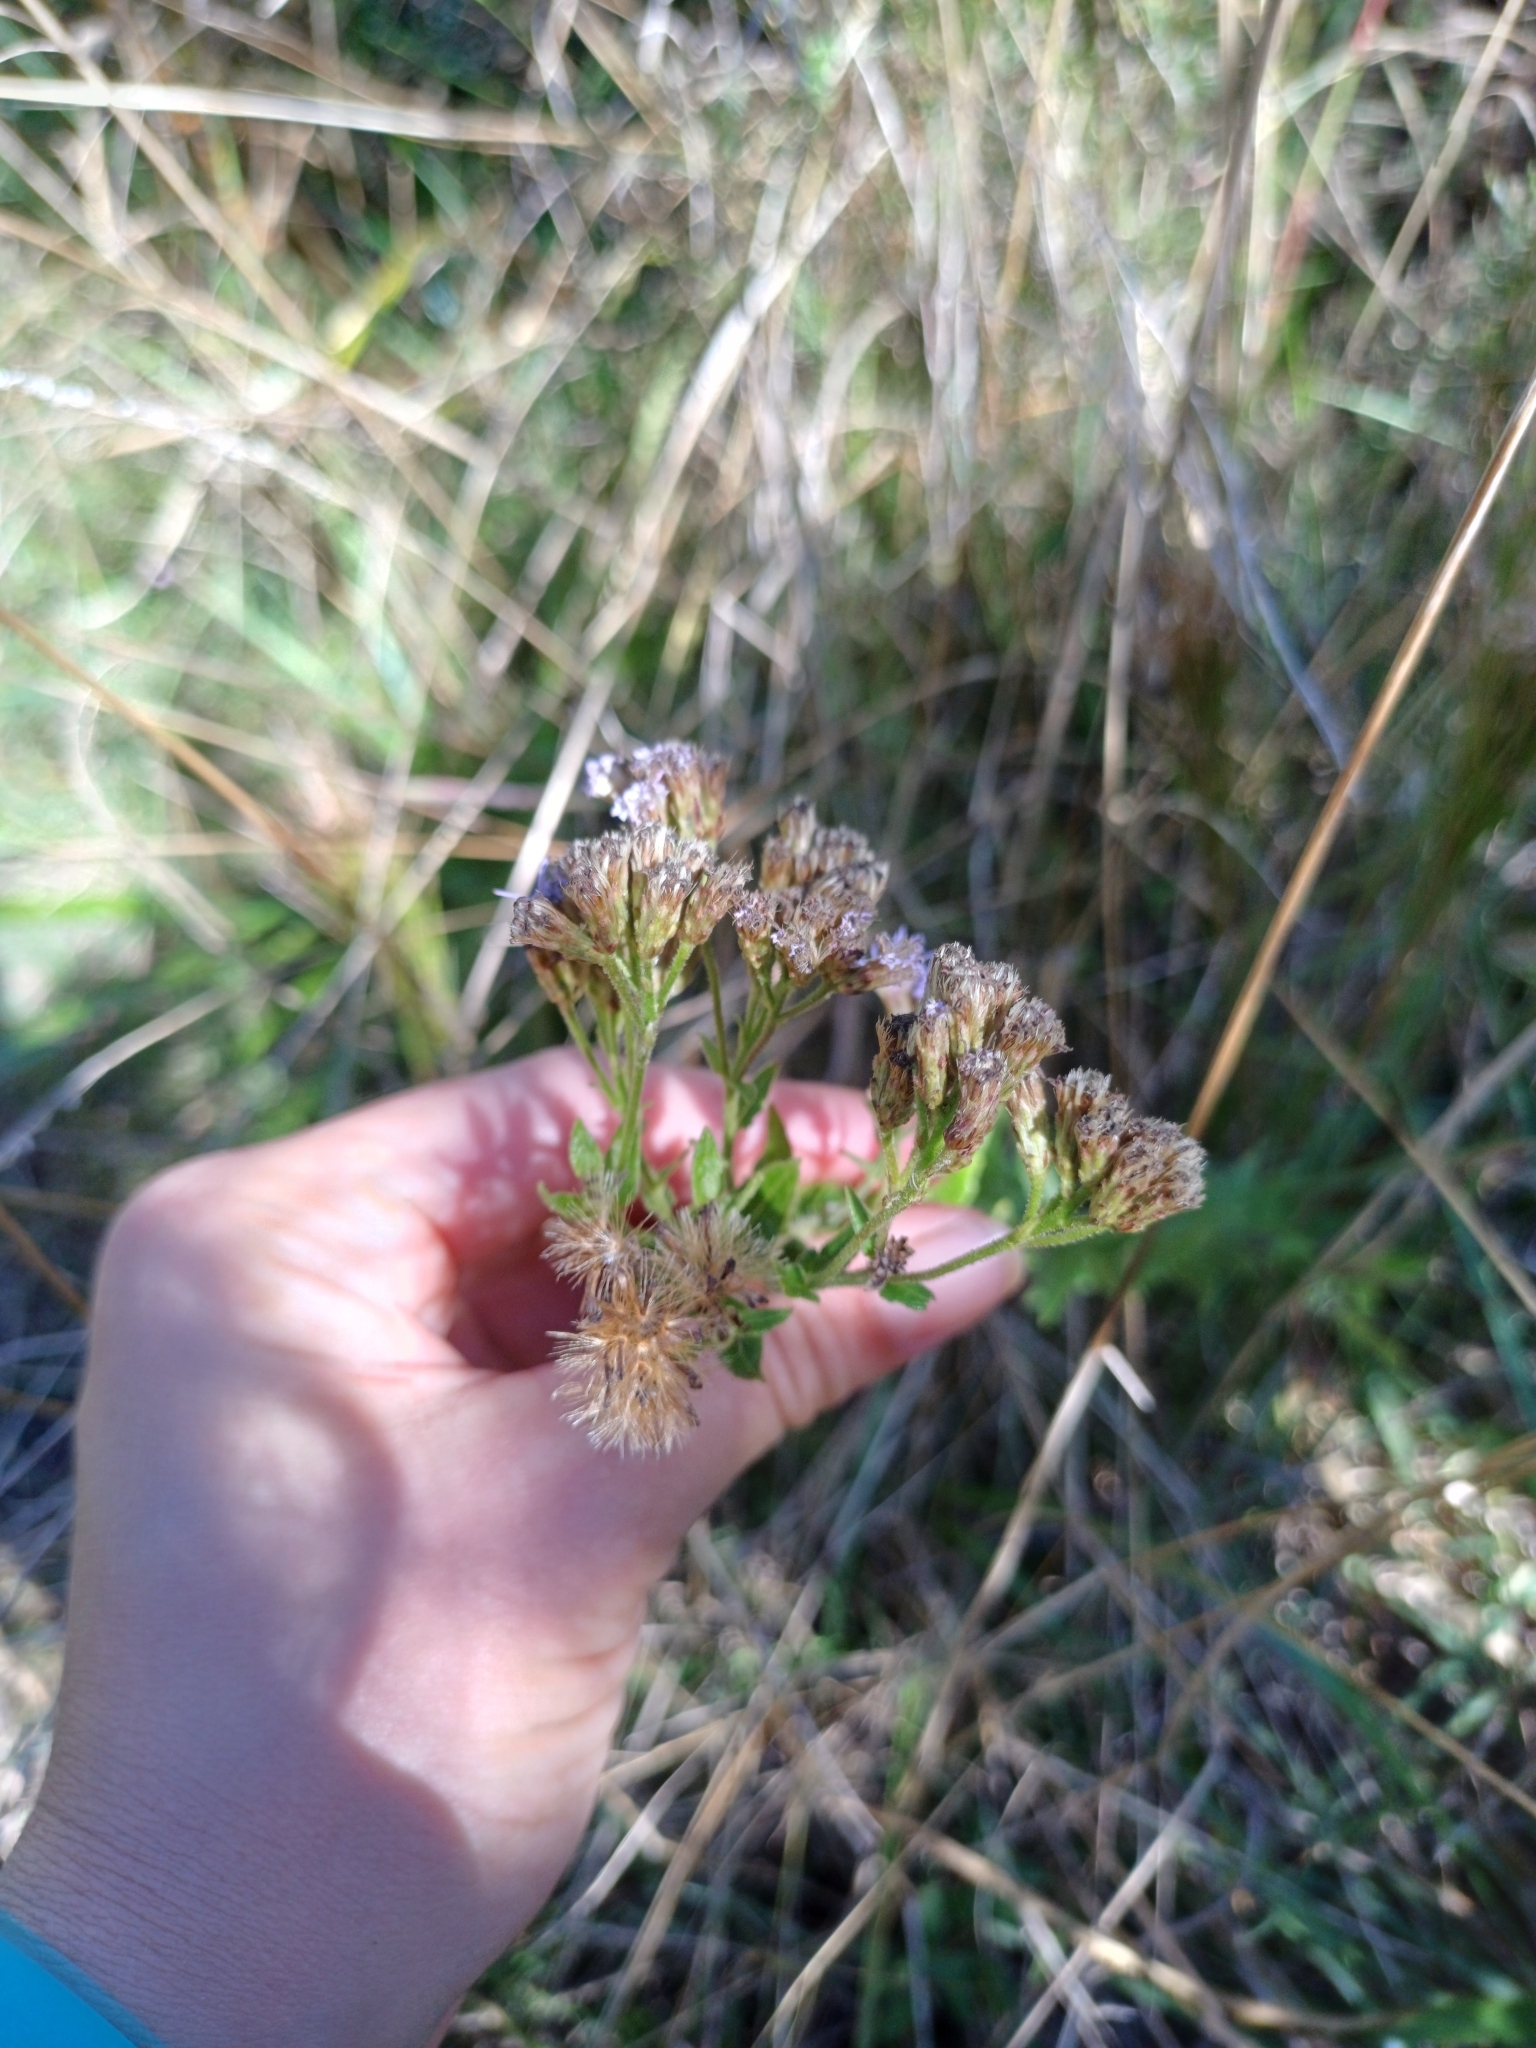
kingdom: Plantae
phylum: Tracheophyta
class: Magnoliopsida
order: Asterales
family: Asteraceae
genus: Chromolaena
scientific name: Chromolaena hirsuta
